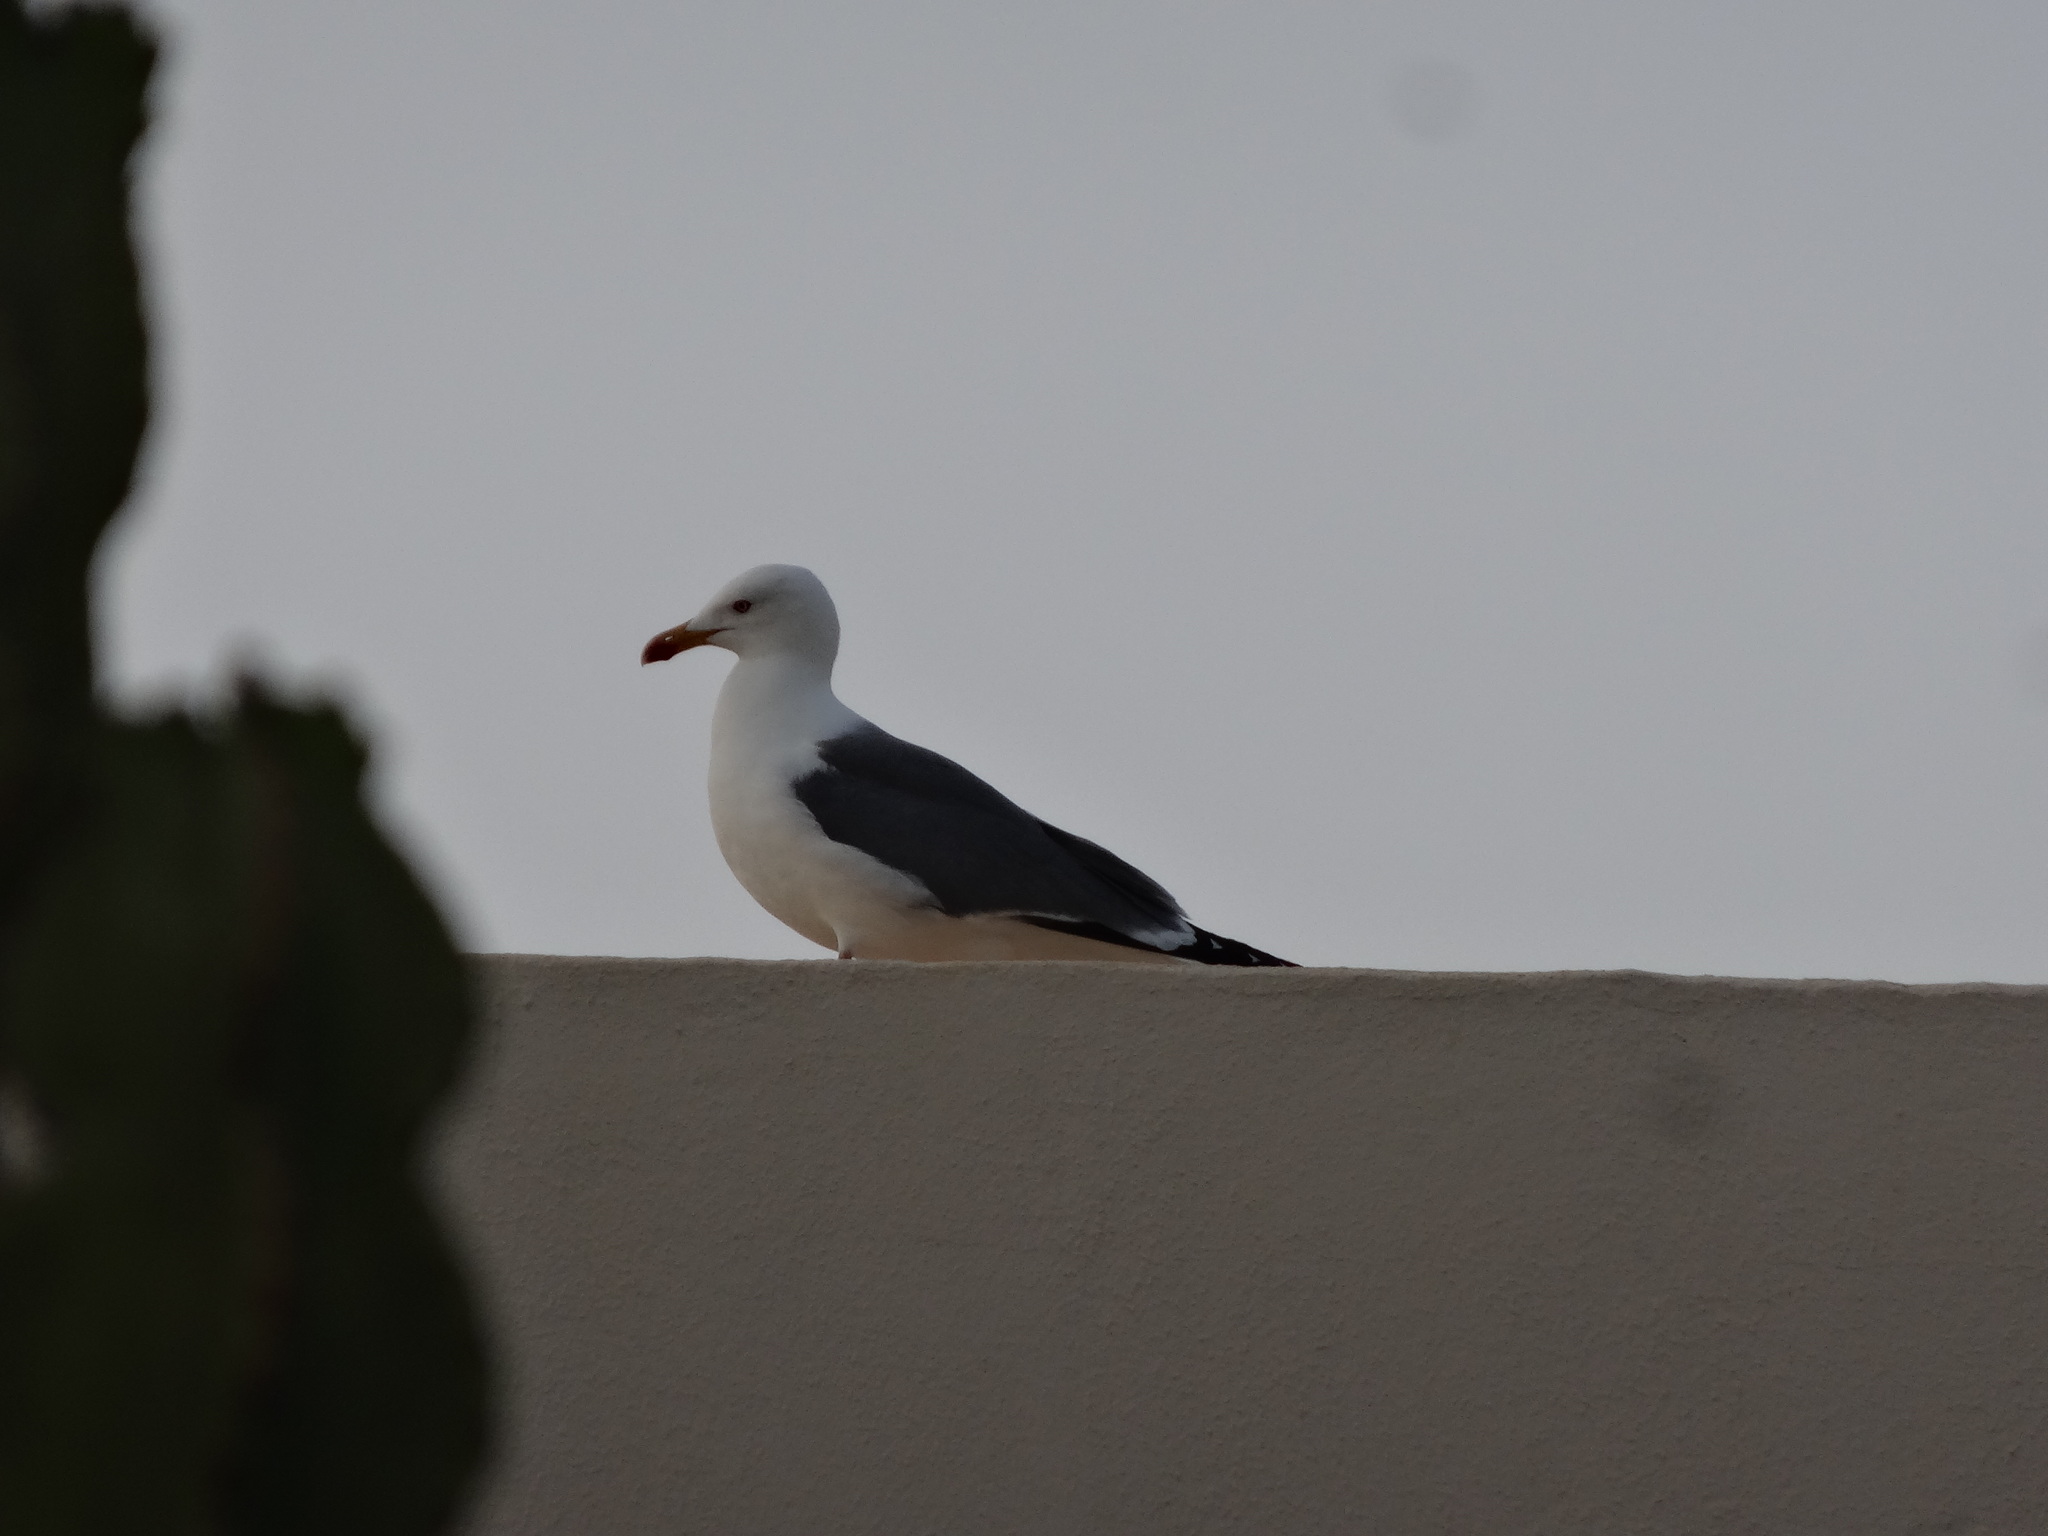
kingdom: Animalia
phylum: Chordata
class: Aves
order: Charadriiformes
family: Laridae
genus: Larus
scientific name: Larus fuscus
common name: Lesser black-backed gull
